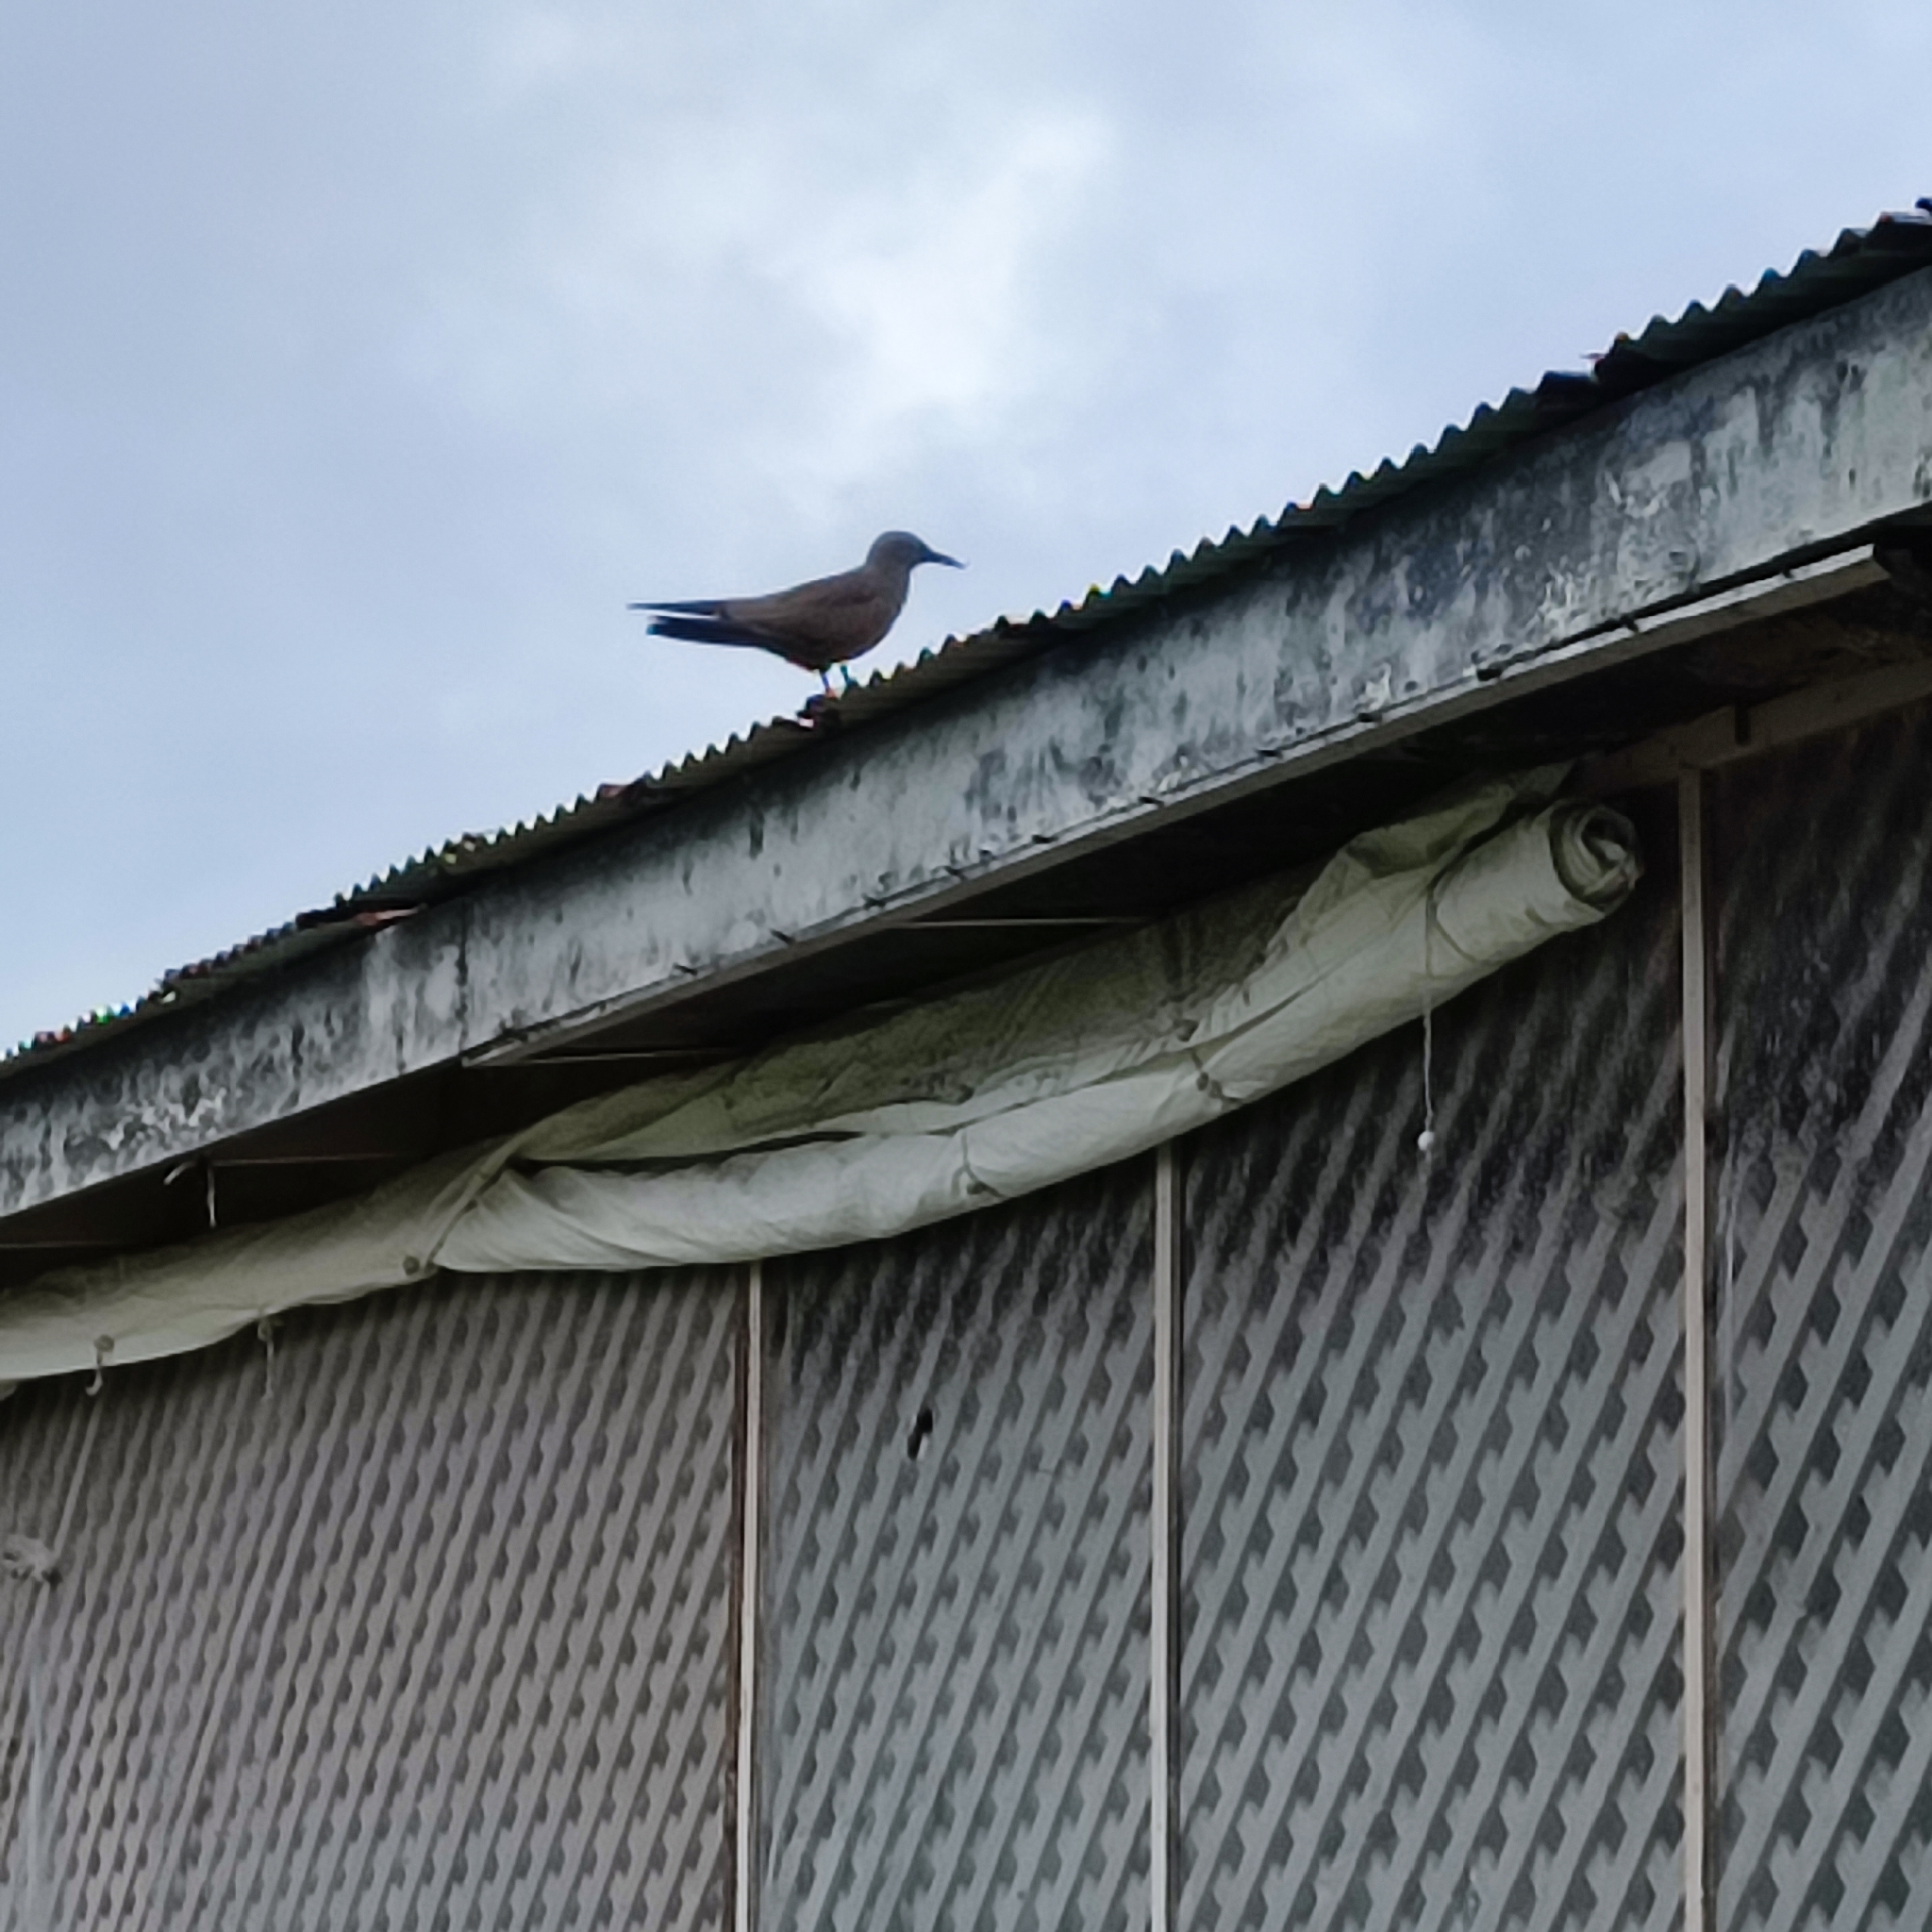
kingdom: Animalia
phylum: Chordata
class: Aves
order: Charadriiformes
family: Laridae
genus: Anous
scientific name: Anous stolidus
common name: Brown noddy
